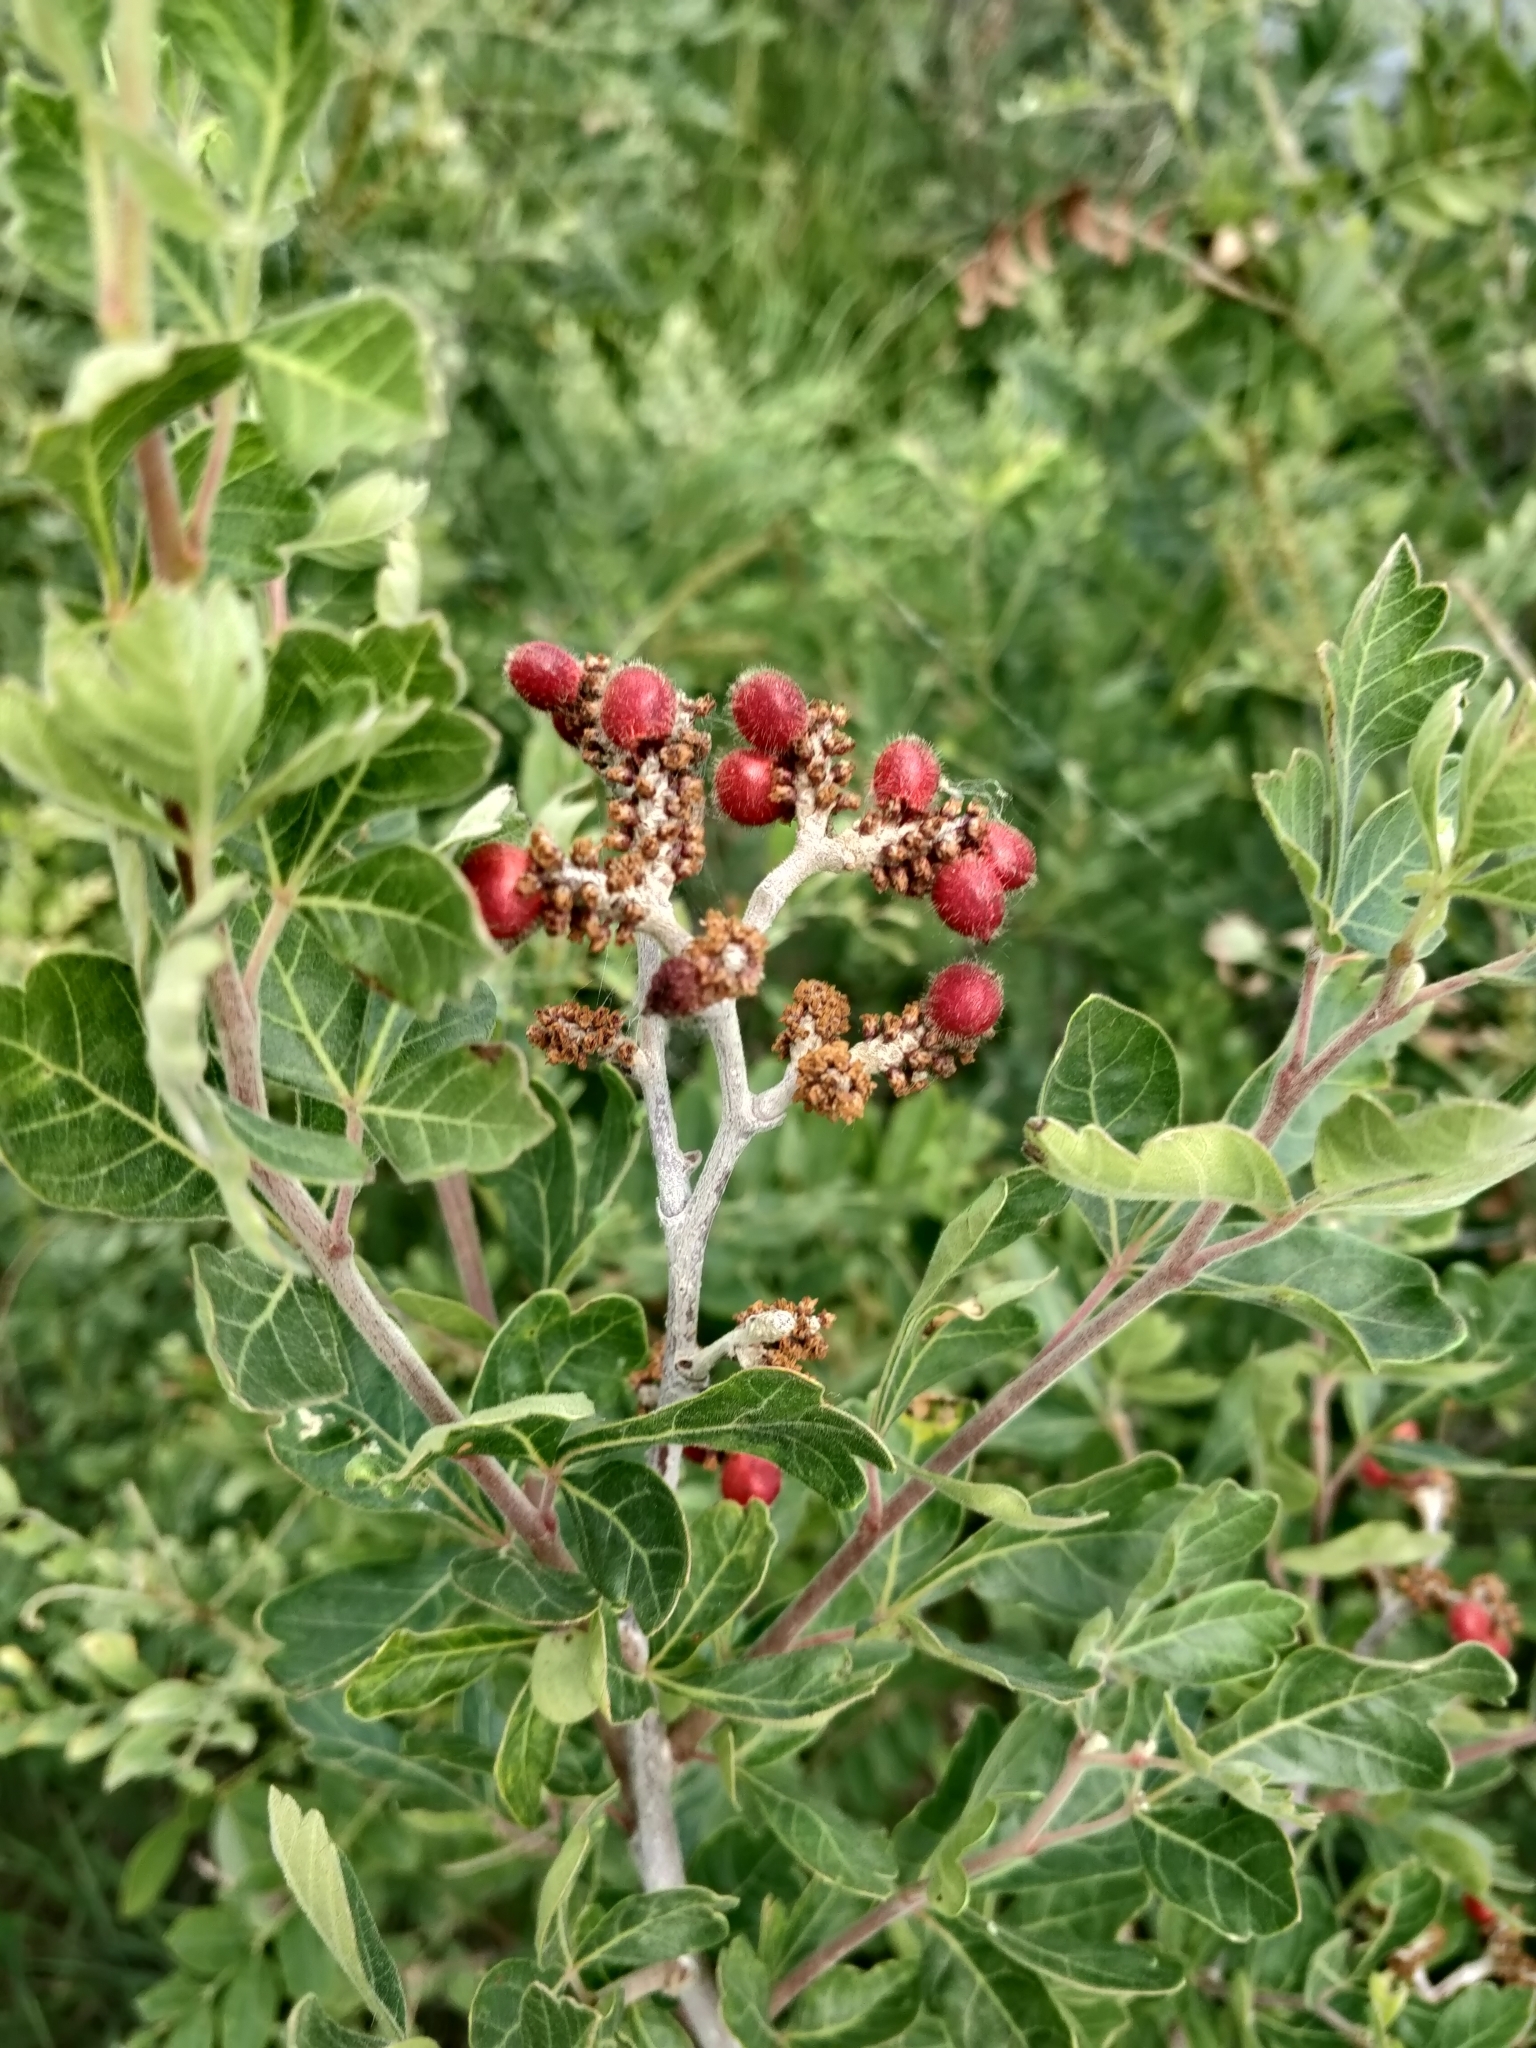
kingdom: Plantae
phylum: Tracheophyta
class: Magnoliopsida
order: Sapindales
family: Anacardiaceae
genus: Rhus
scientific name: Rhus aromatica
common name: Aromatic sumac
